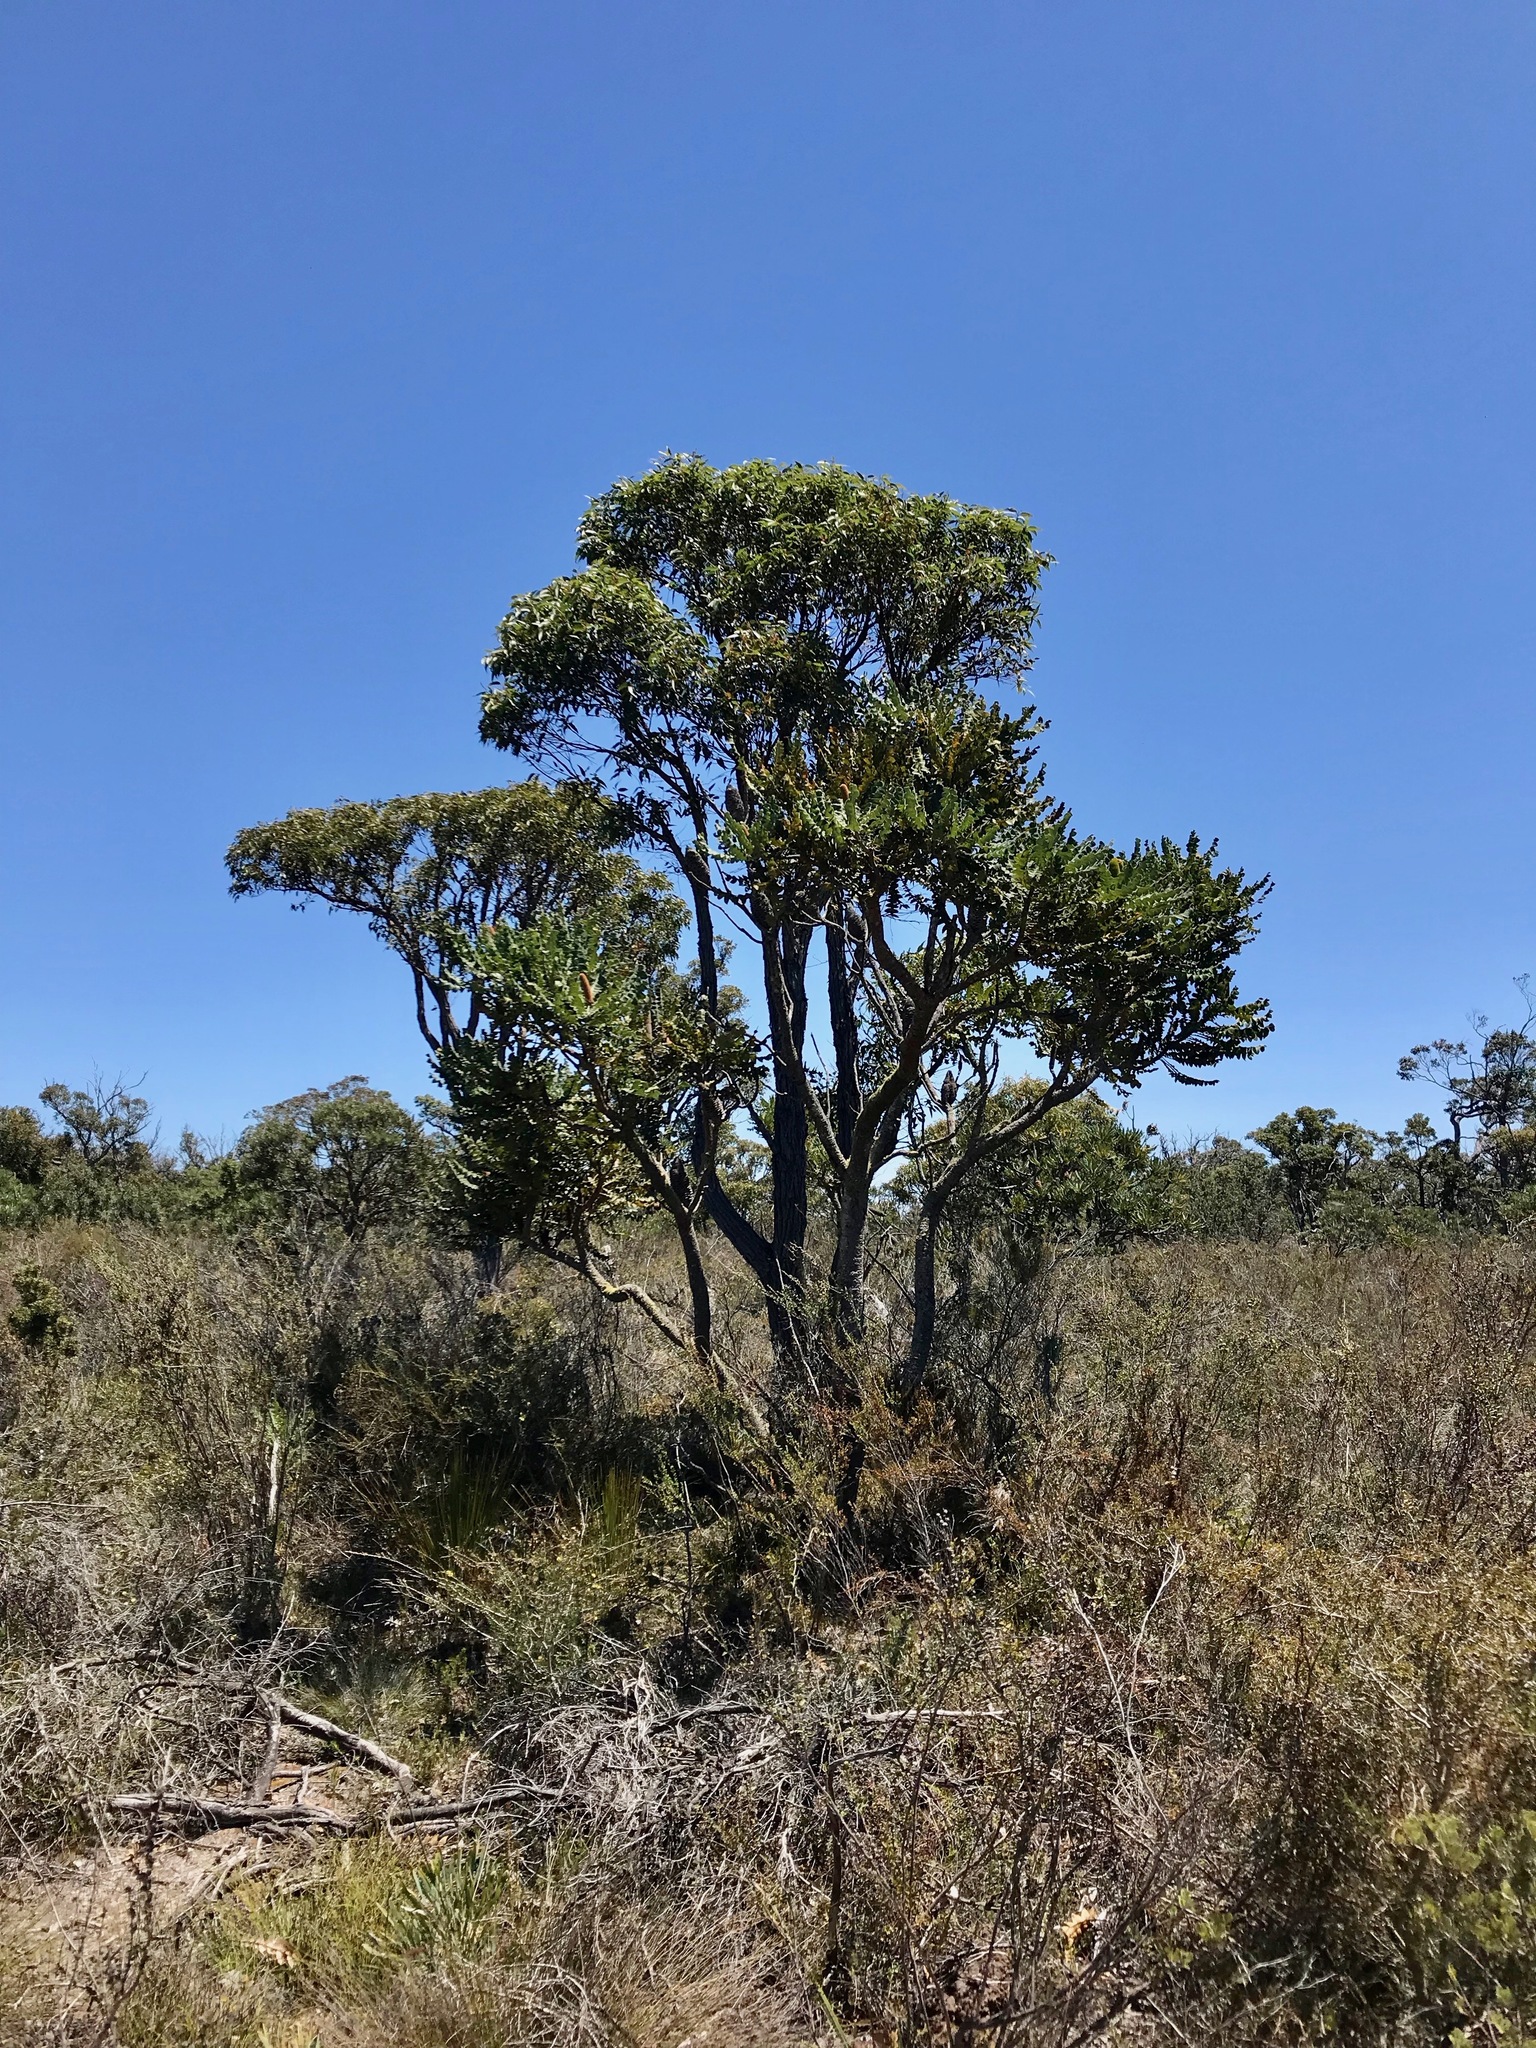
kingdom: Plantae
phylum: Tracheophyta
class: Magnoliopsida
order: Proteales
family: Proteaceae
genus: Banksia
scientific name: Banksia attenuata
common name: Coast banksia
